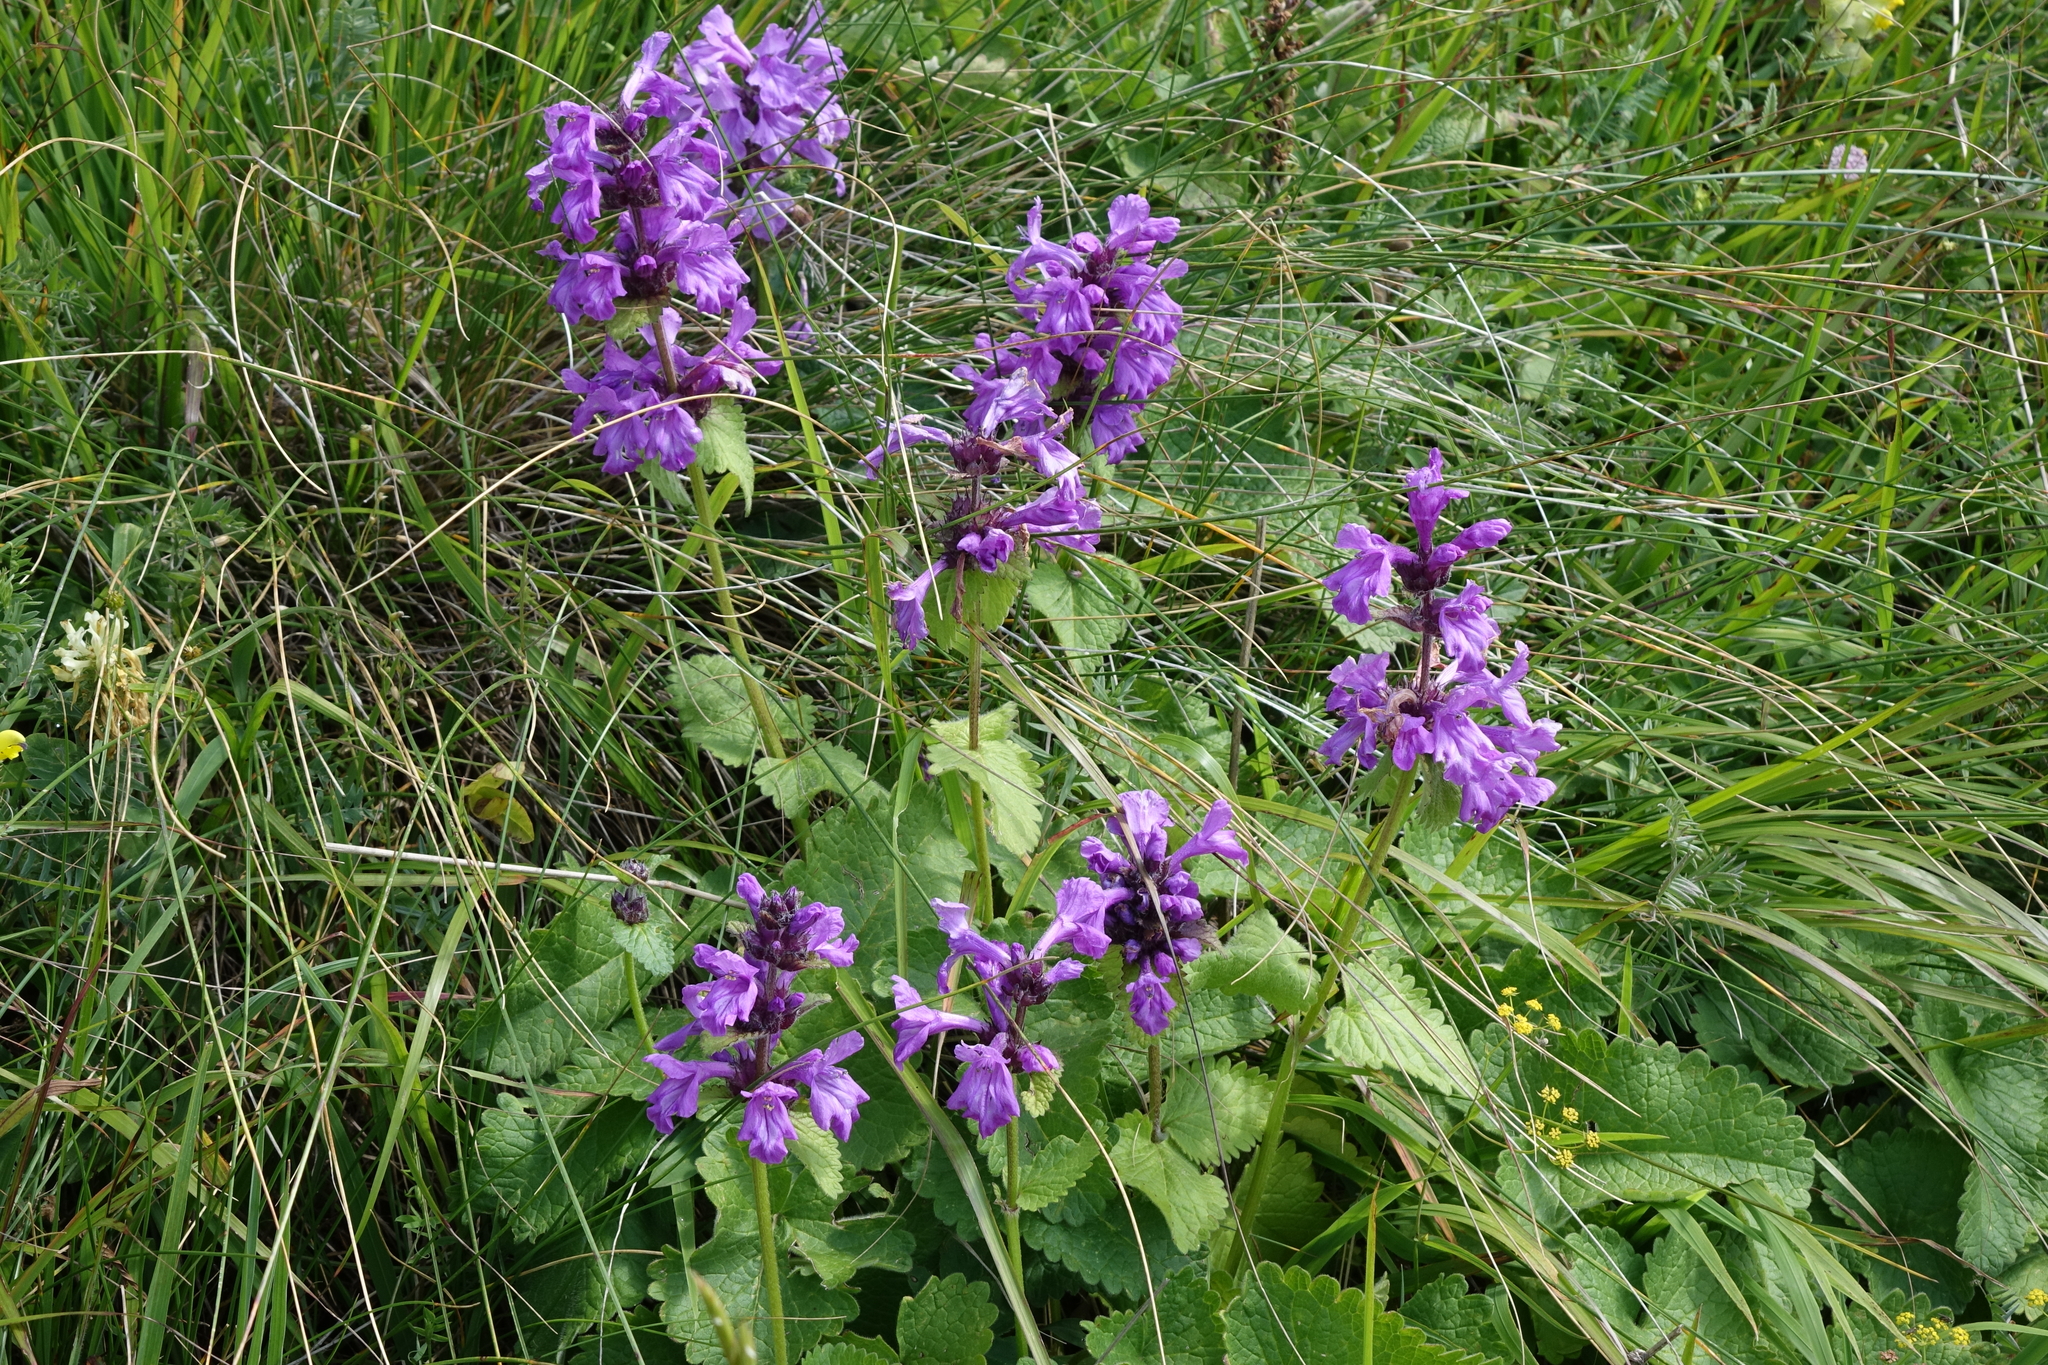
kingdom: Plantae
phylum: Tracheophyta
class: Magnoliopsida
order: Lamiales
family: Lamiaceae
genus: Betonica
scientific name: Betonica macrantha
